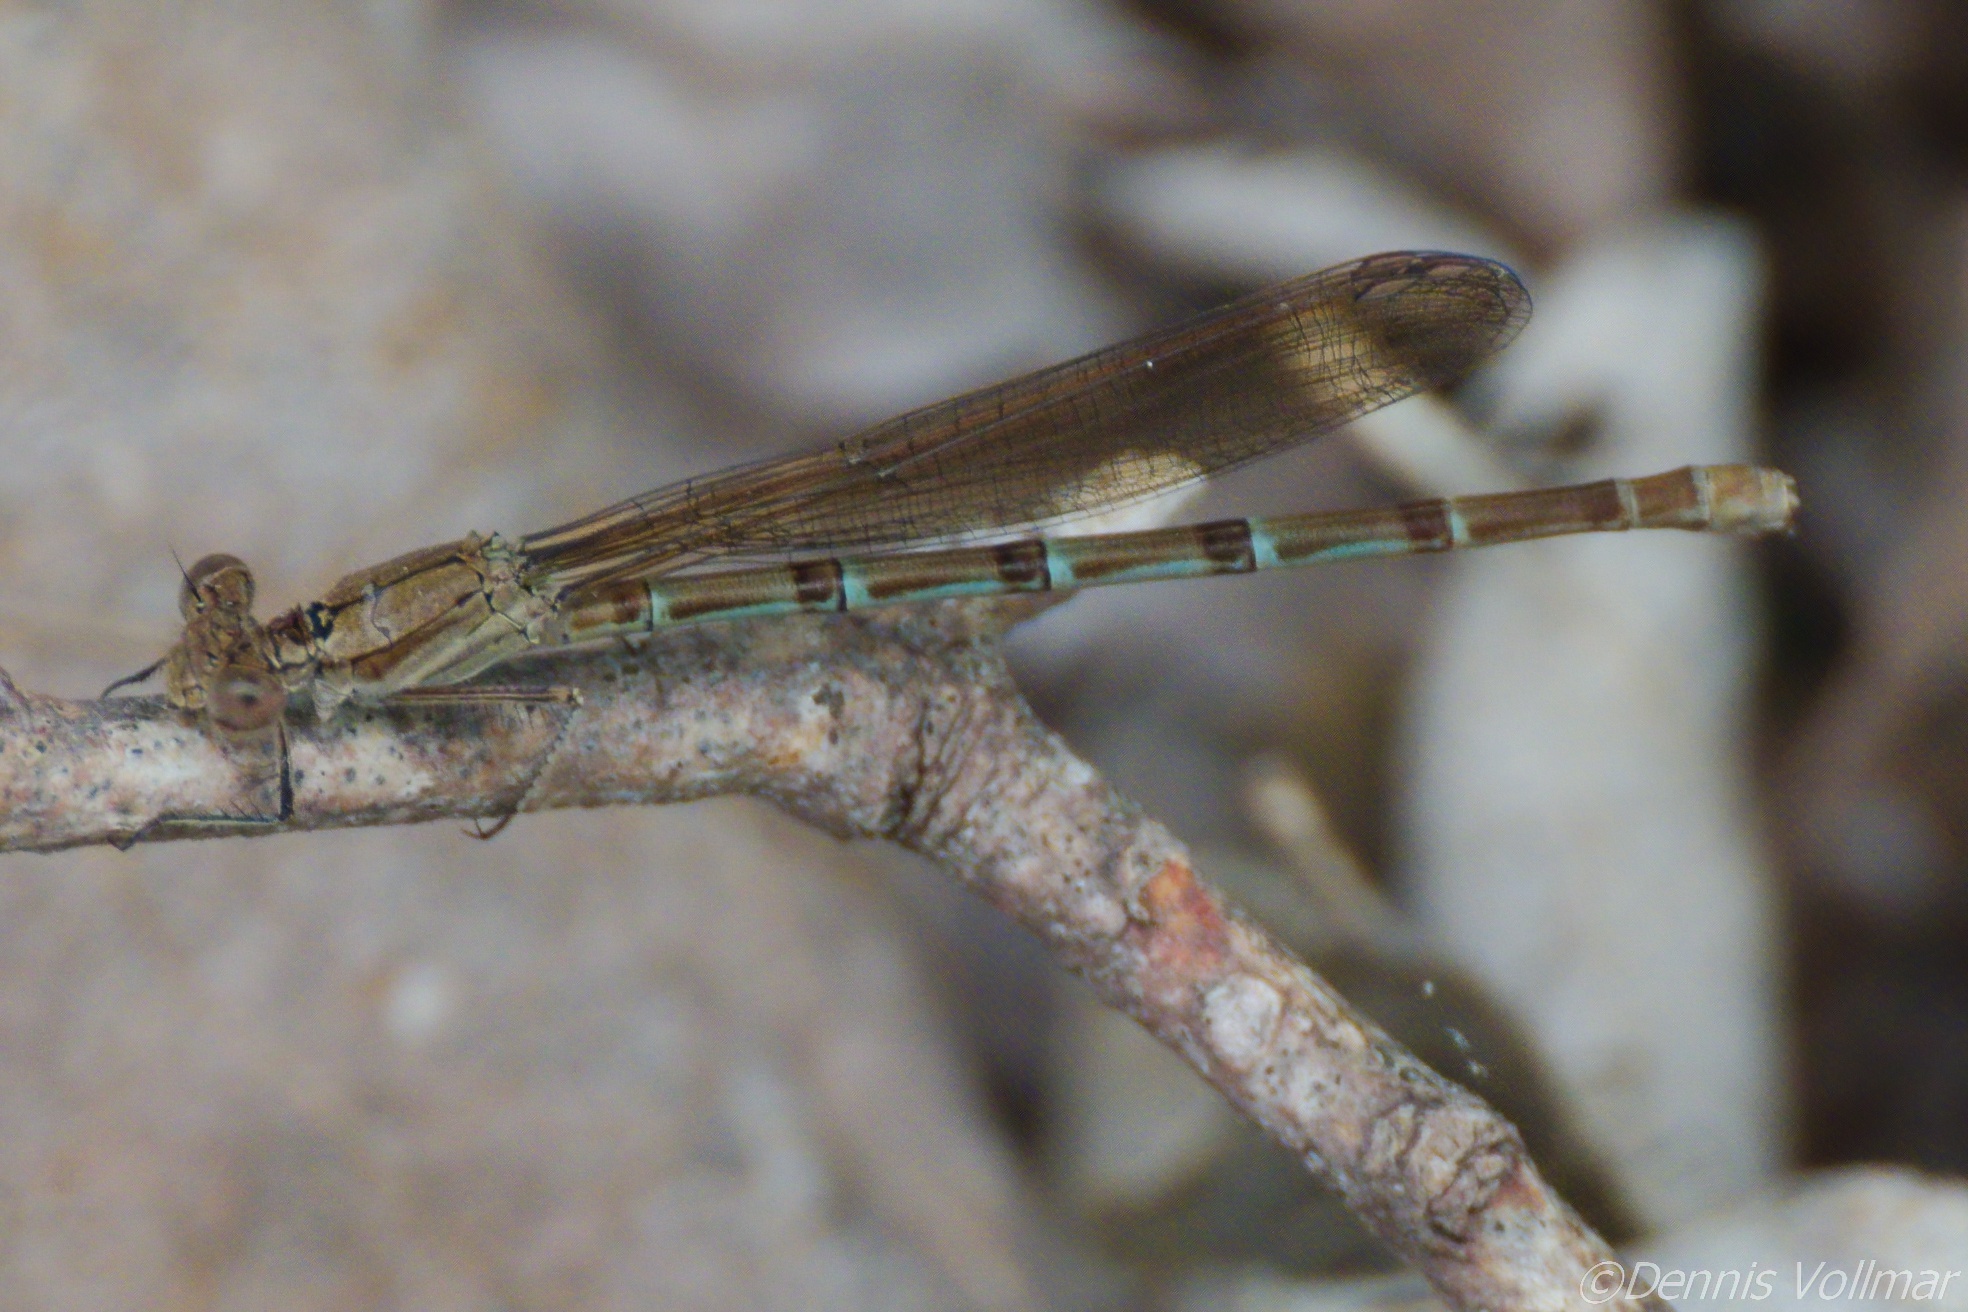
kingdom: Animalia
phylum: Arthropoda
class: Insecta
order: Odonata
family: Coenagrionidae
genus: Argia
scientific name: Argia sedula
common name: Blue-ringed dancer
